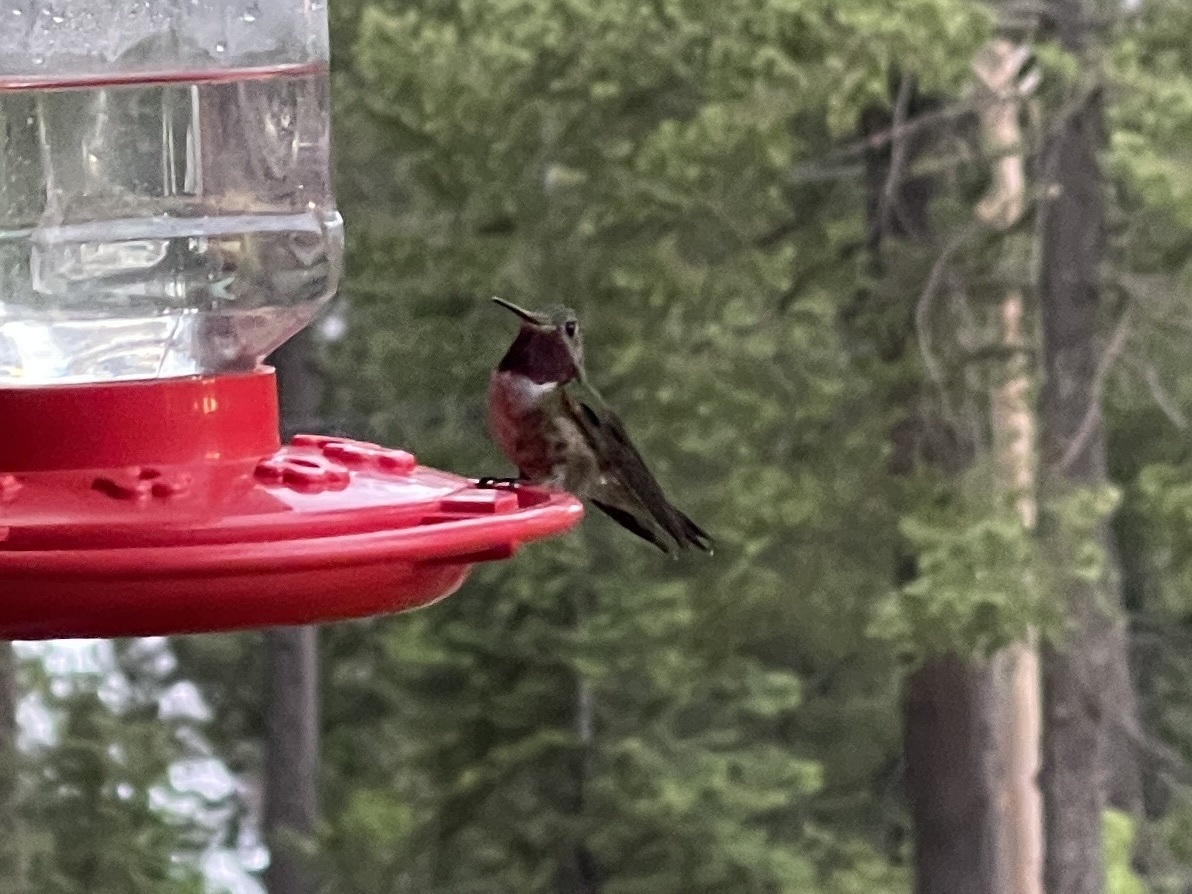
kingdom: Animalia
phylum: Chordata
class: Aves
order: Apodiformes
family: Trochilidae
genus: Selasphorus
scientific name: Selasphorus platycercus
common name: Broad-tailed hummingbird
